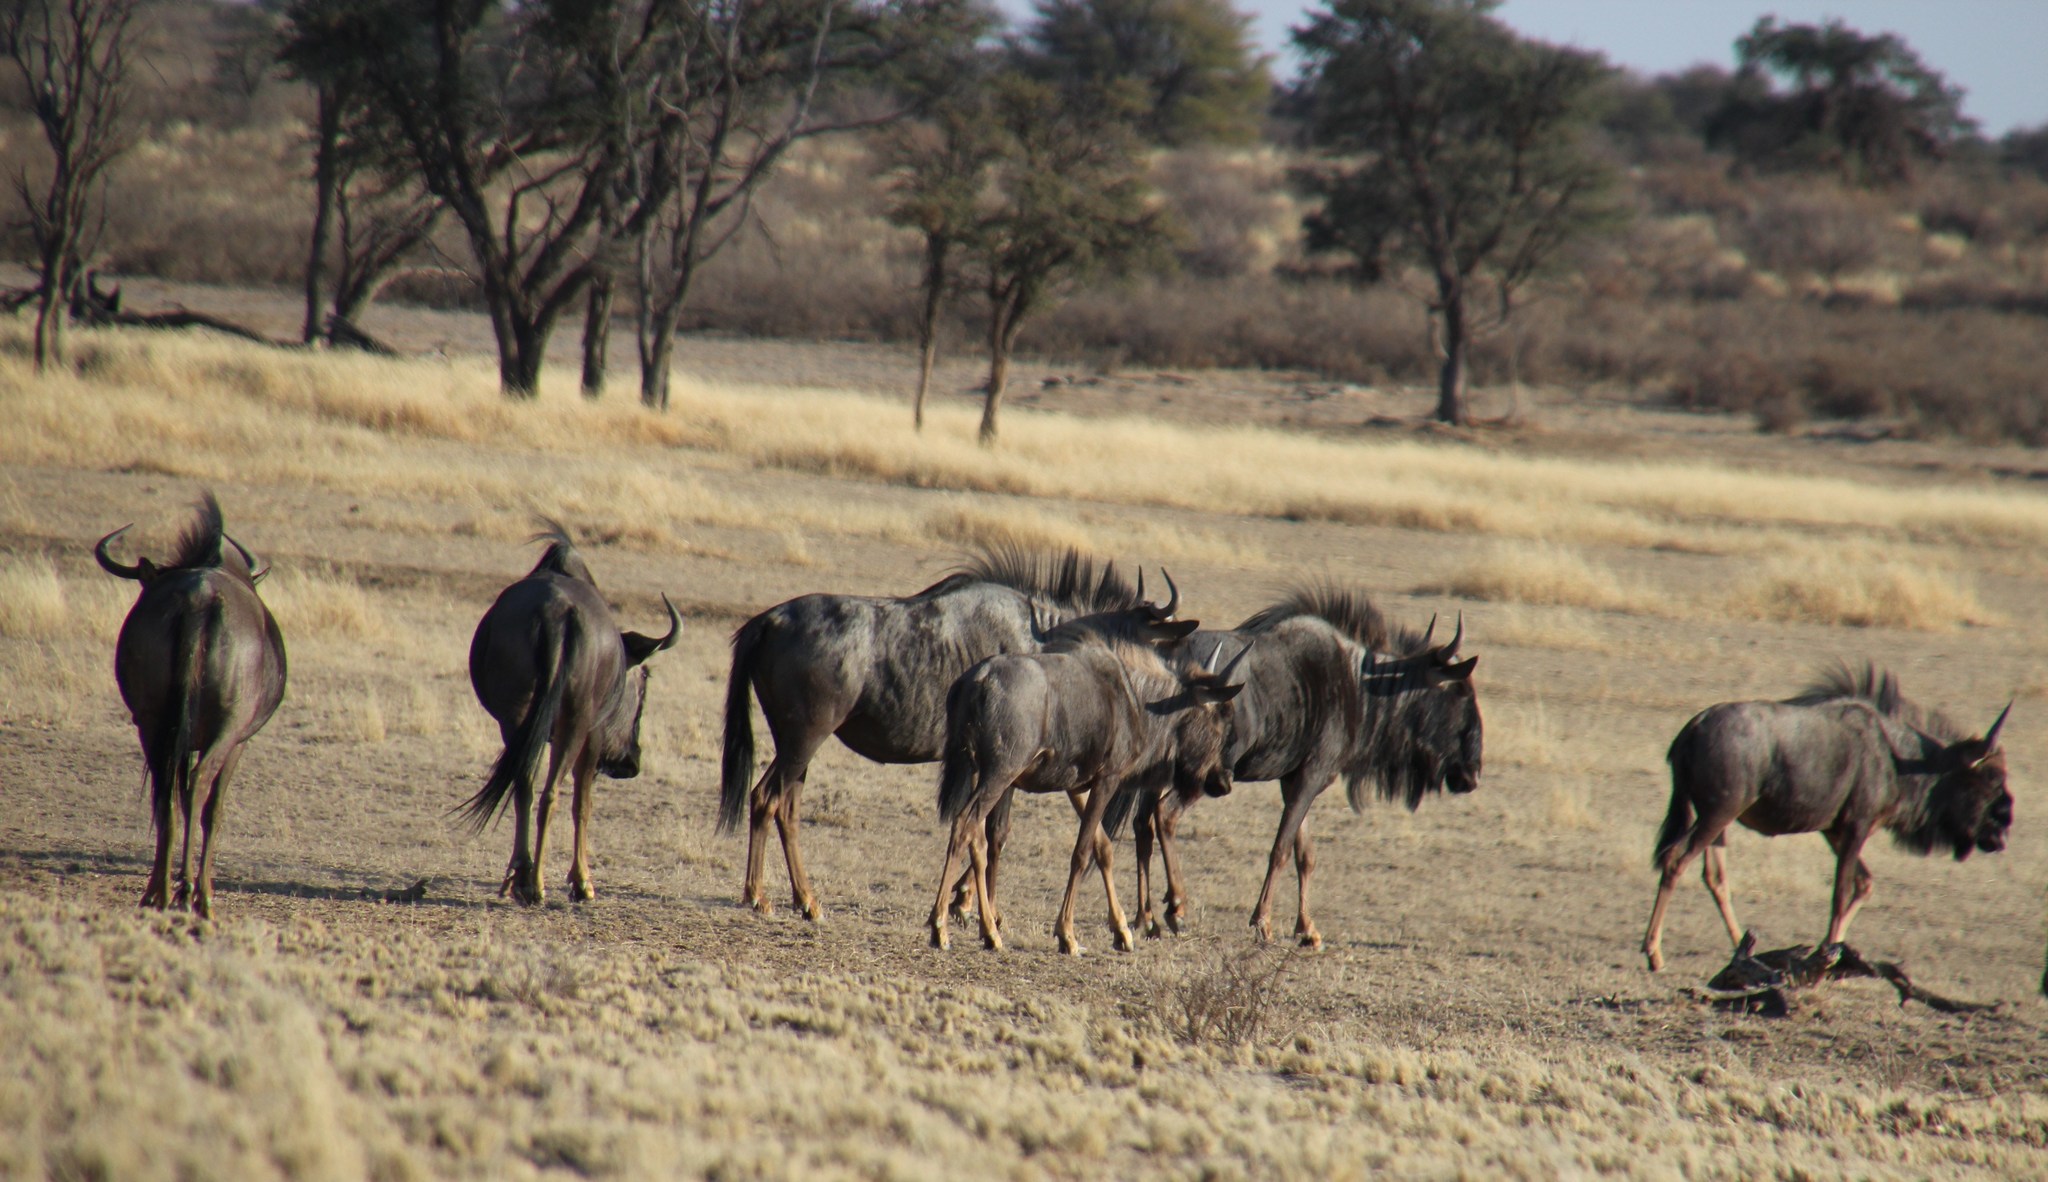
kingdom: Animalia
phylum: Chordata
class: Mammalia
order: Artiodactyla
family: Bovidae
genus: Connochaetes
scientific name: Connochaetes taurinus
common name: Blue wildebeest
